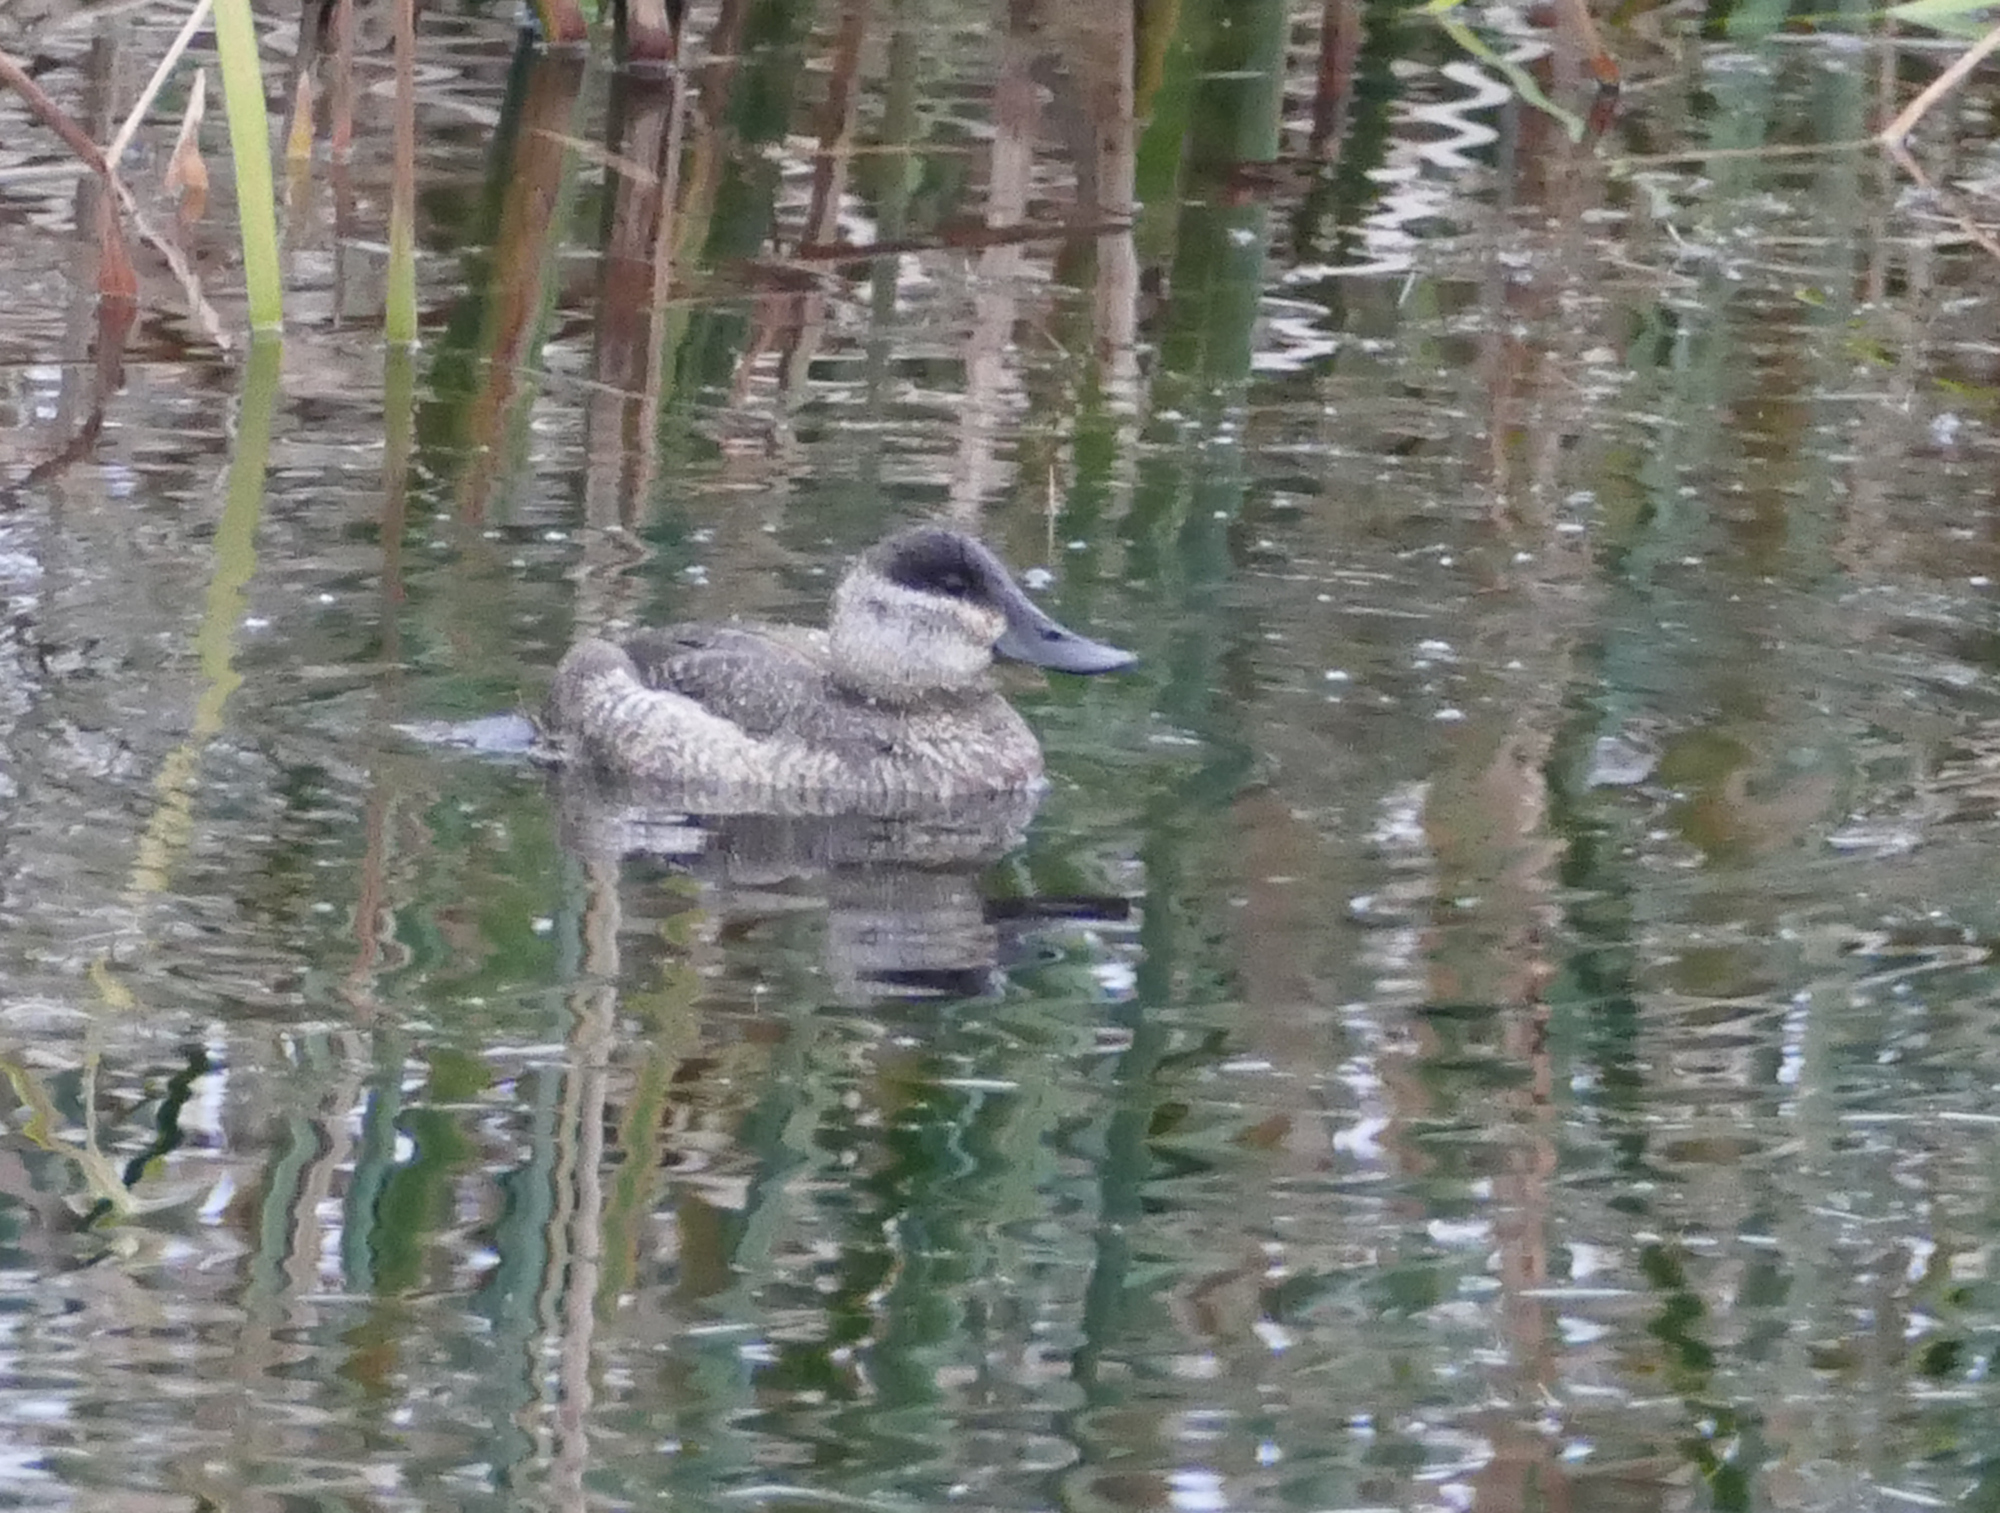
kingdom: Animalia
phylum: Chordata
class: Aves
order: Anseriformes
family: Anatidae
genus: Oxyura
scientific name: Oxyura jamaicensis
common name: Ruddy duck
